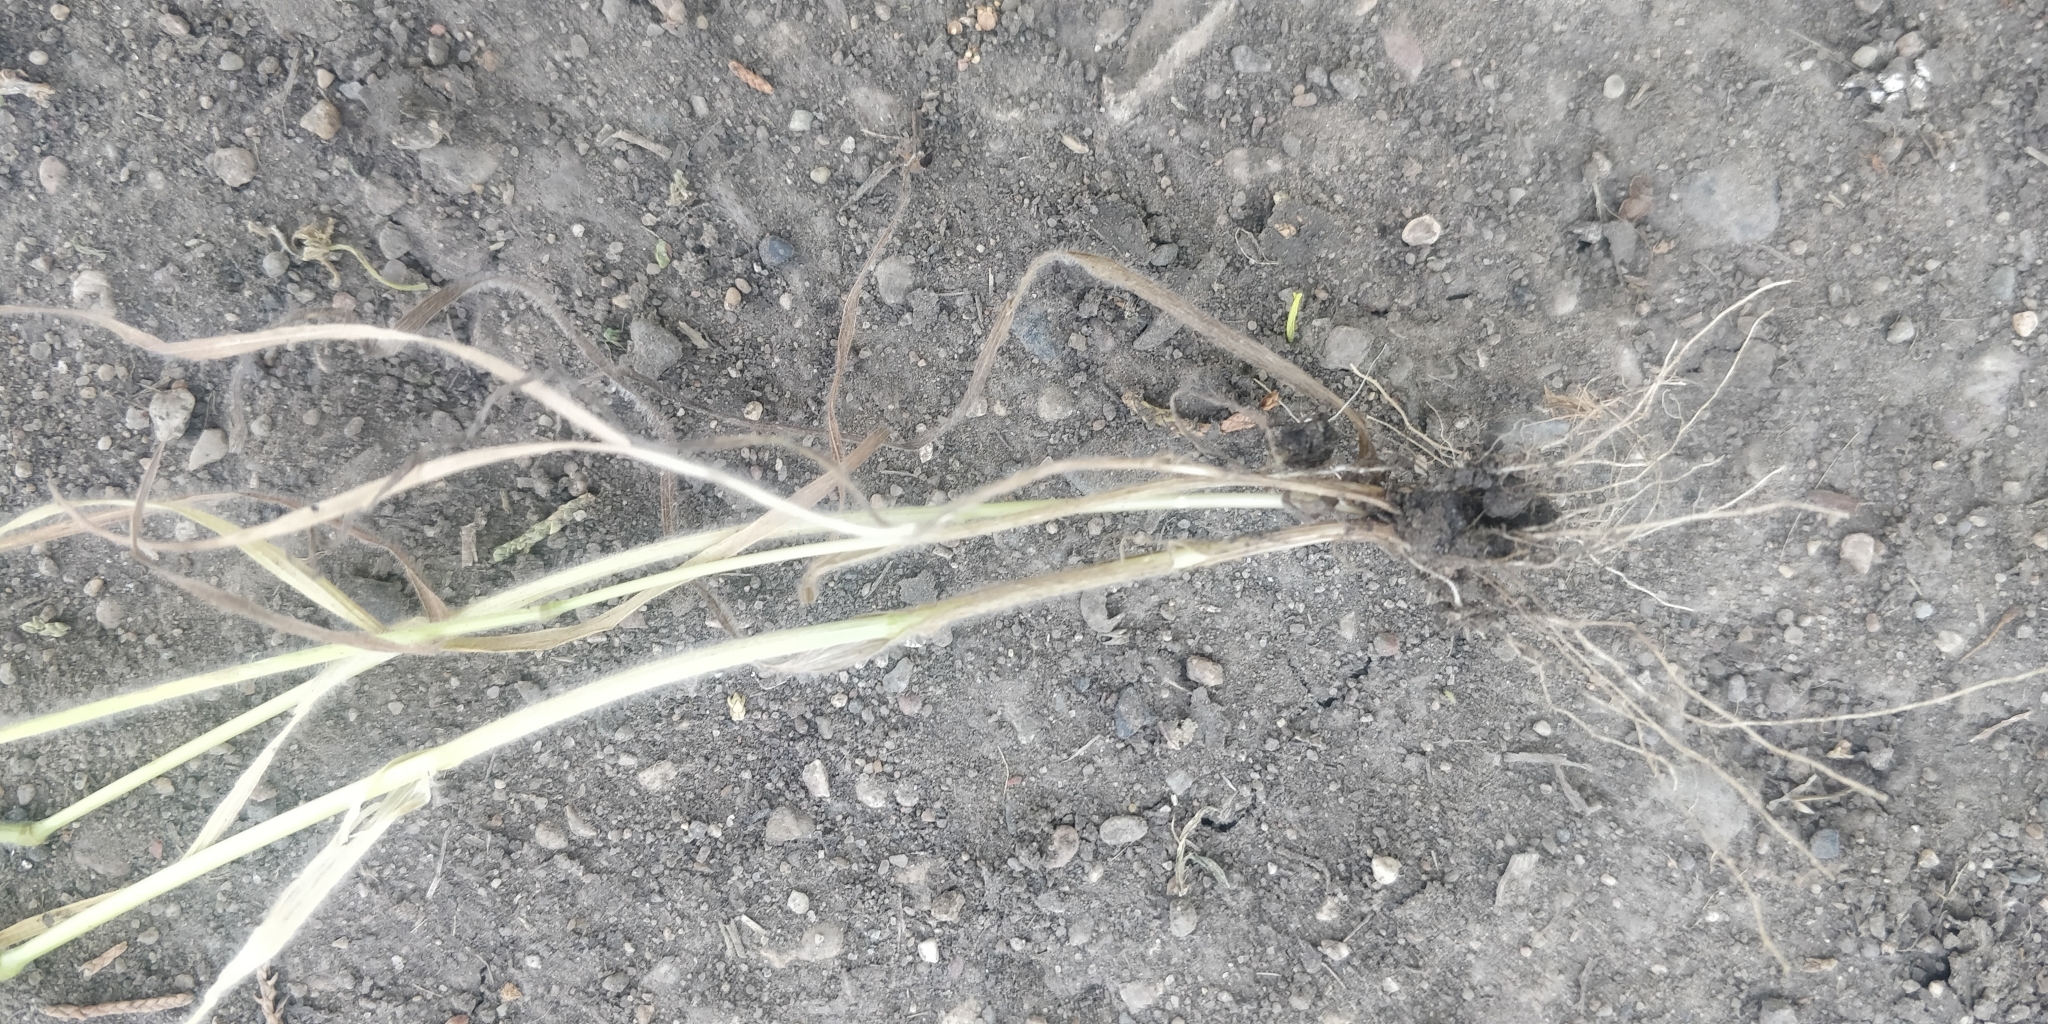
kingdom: Plantae
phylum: Tracheophyta
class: Liliopsida
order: Poales
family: Poaceae
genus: Bromus
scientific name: Bromus japonicus
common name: Japanese brome
